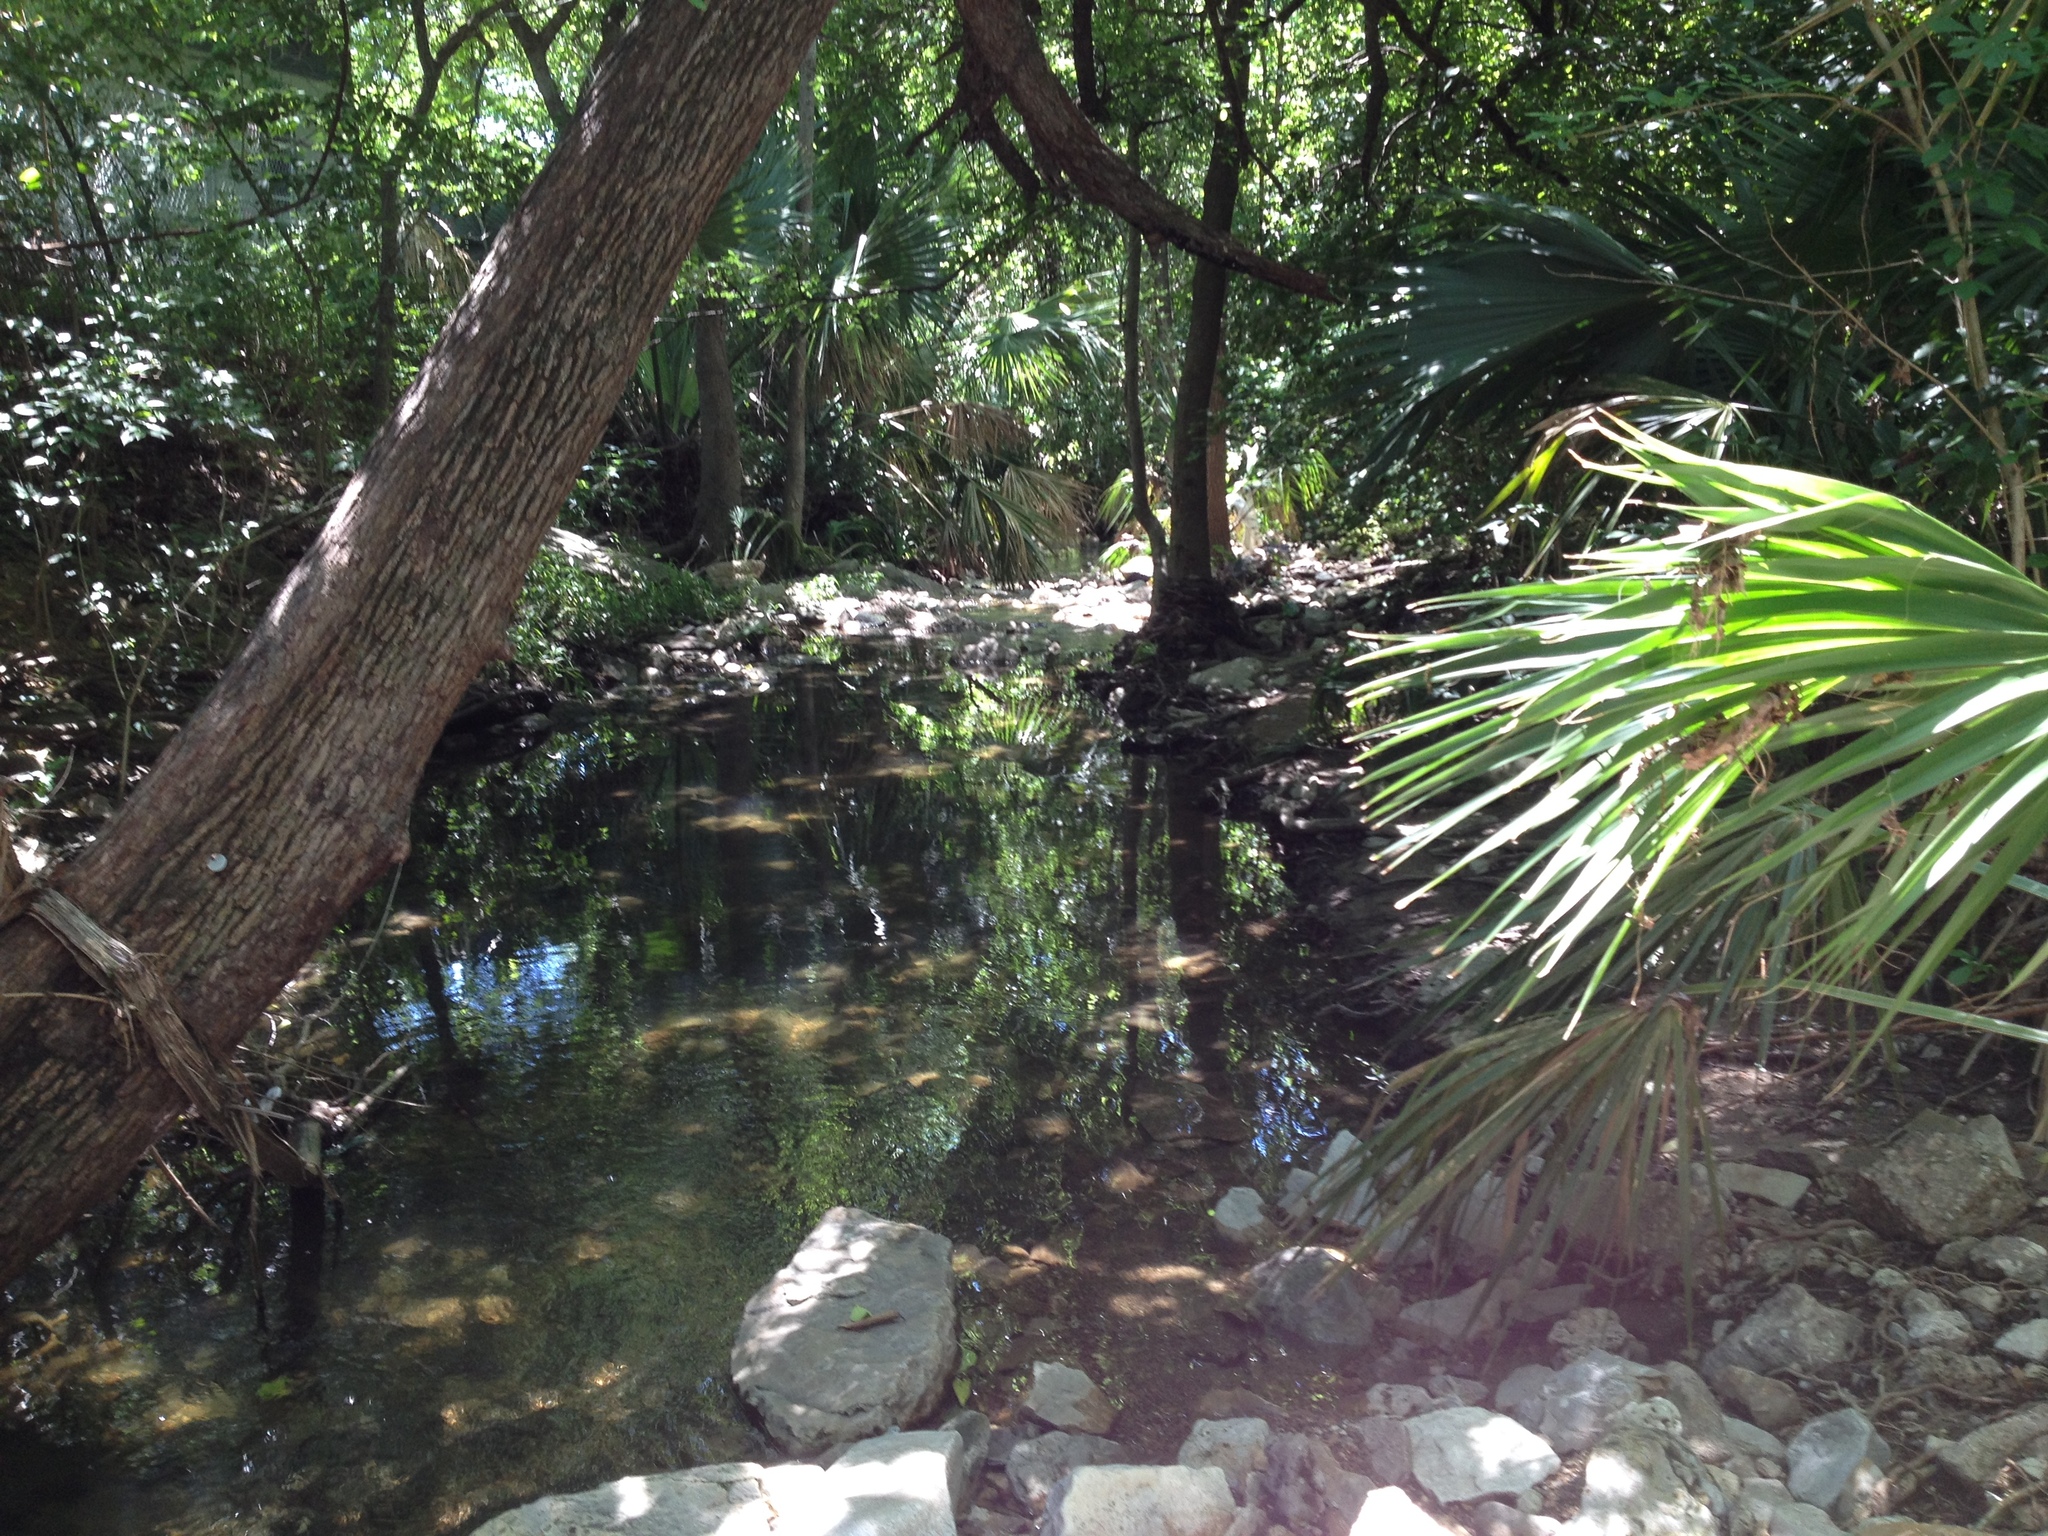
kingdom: Plantae
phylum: Tracheophyta
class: Liliopsida
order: Arecales
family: Arecaceae
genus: Sabal
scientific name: Sabal mexicana
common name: Texas palmetto
